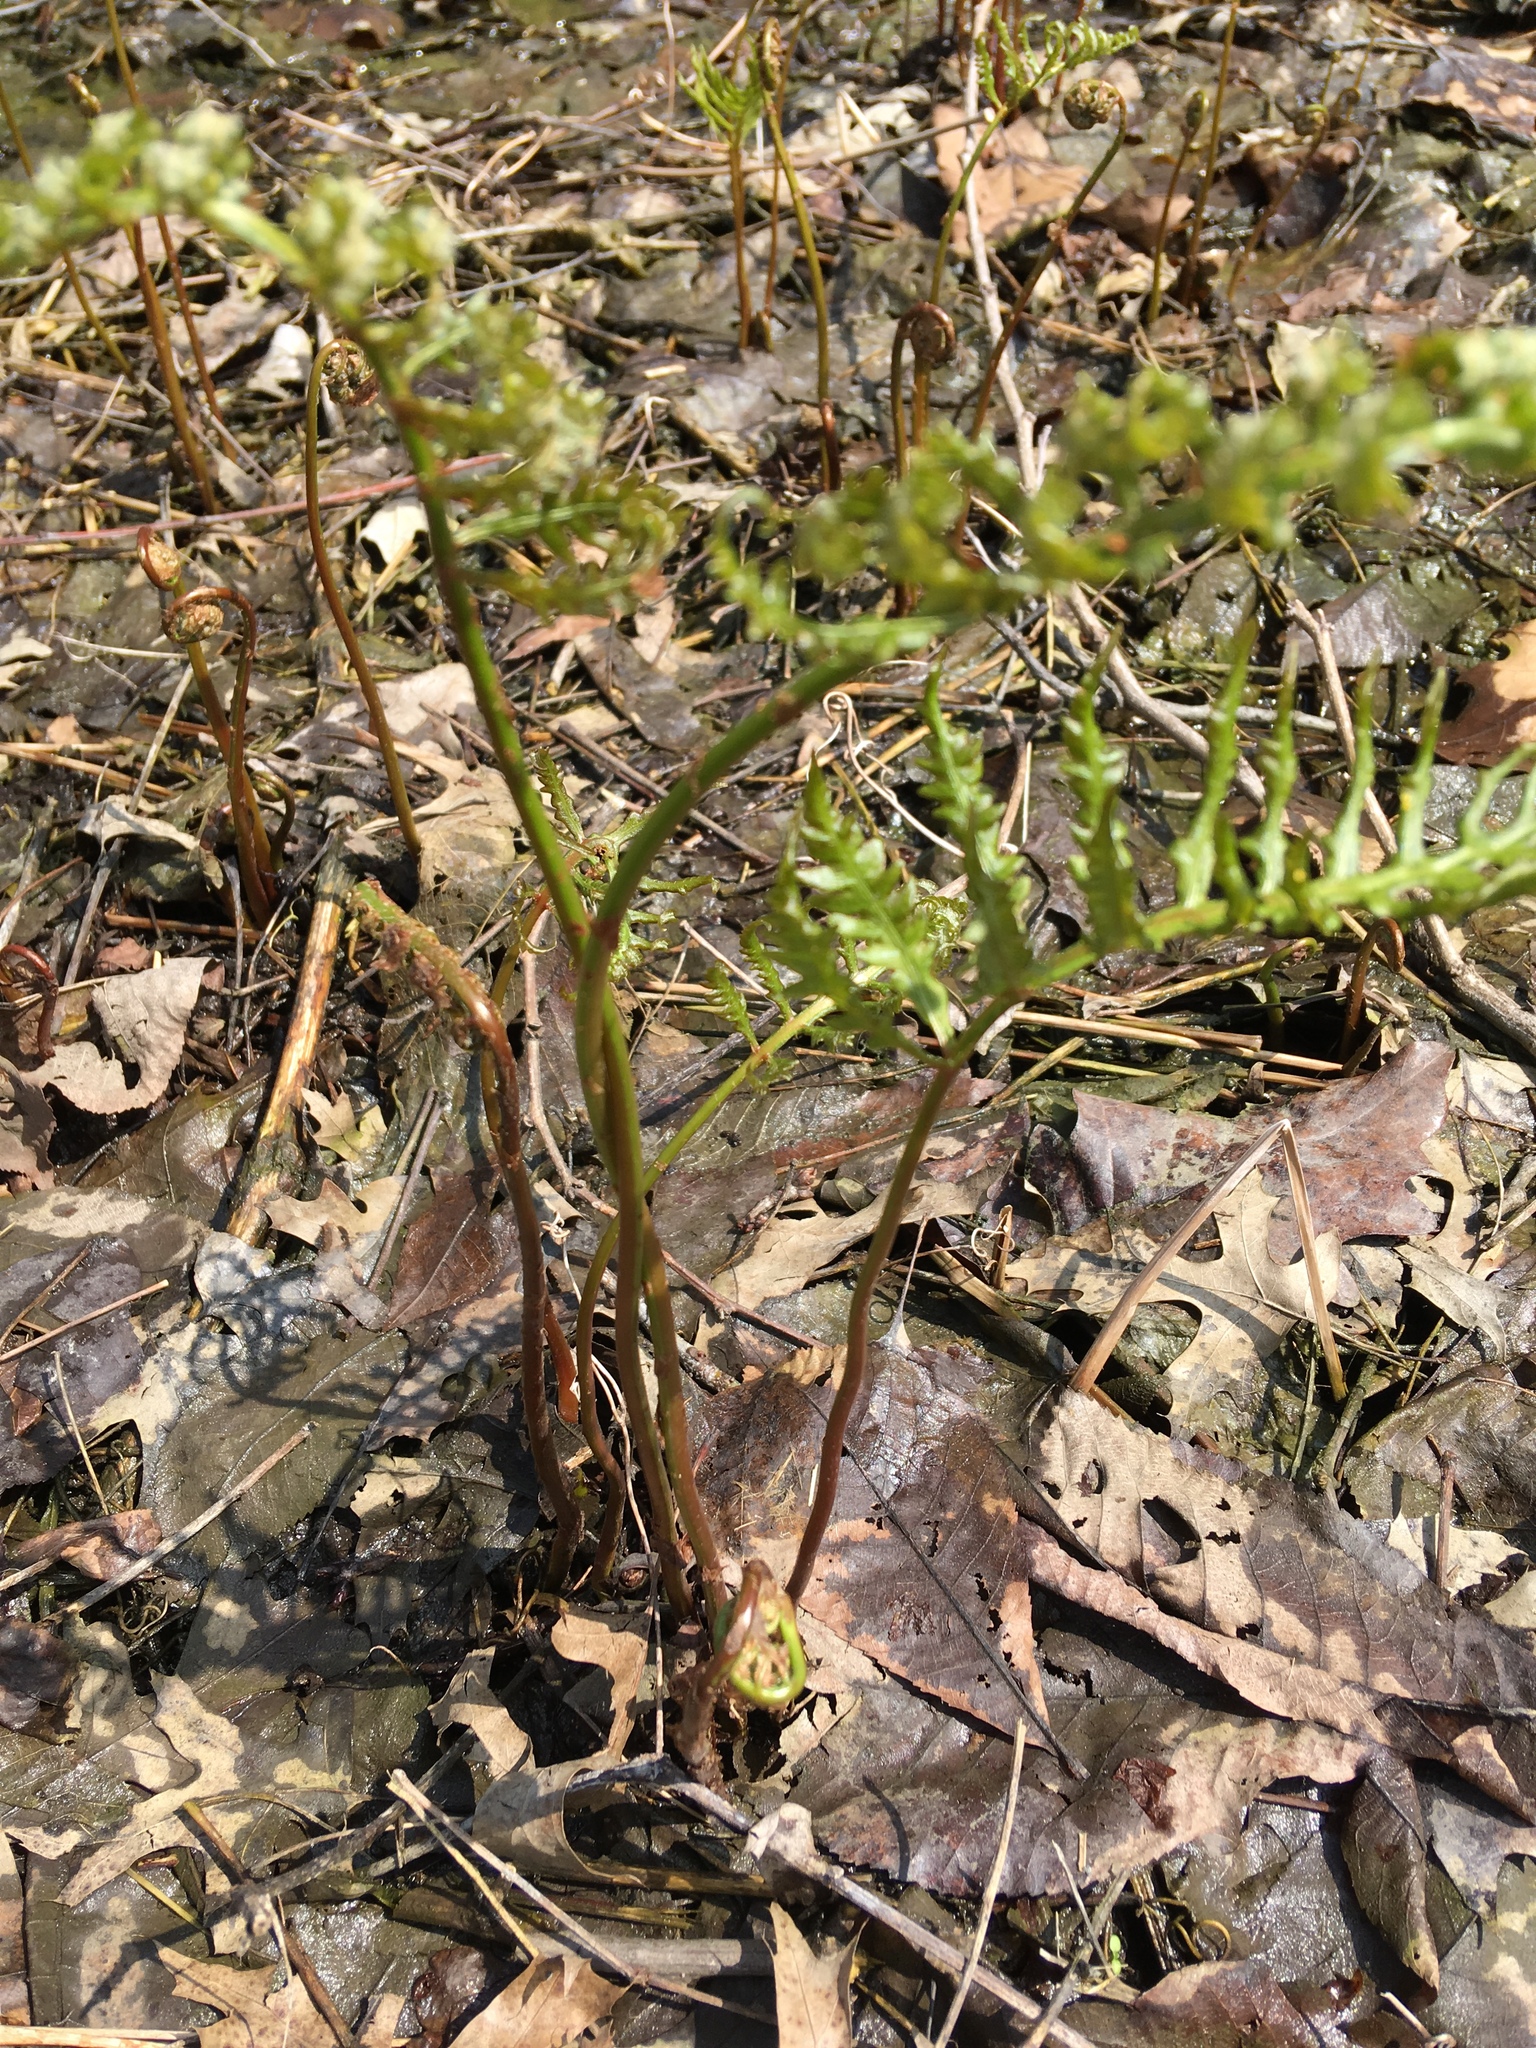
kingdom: Plantae
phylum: Tracheophyta
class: Polypodiopsida
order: Polypodiales
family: Onocleaceae
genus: Onoclea
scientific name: Onoclea sensibilis
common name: Sensitive fern
